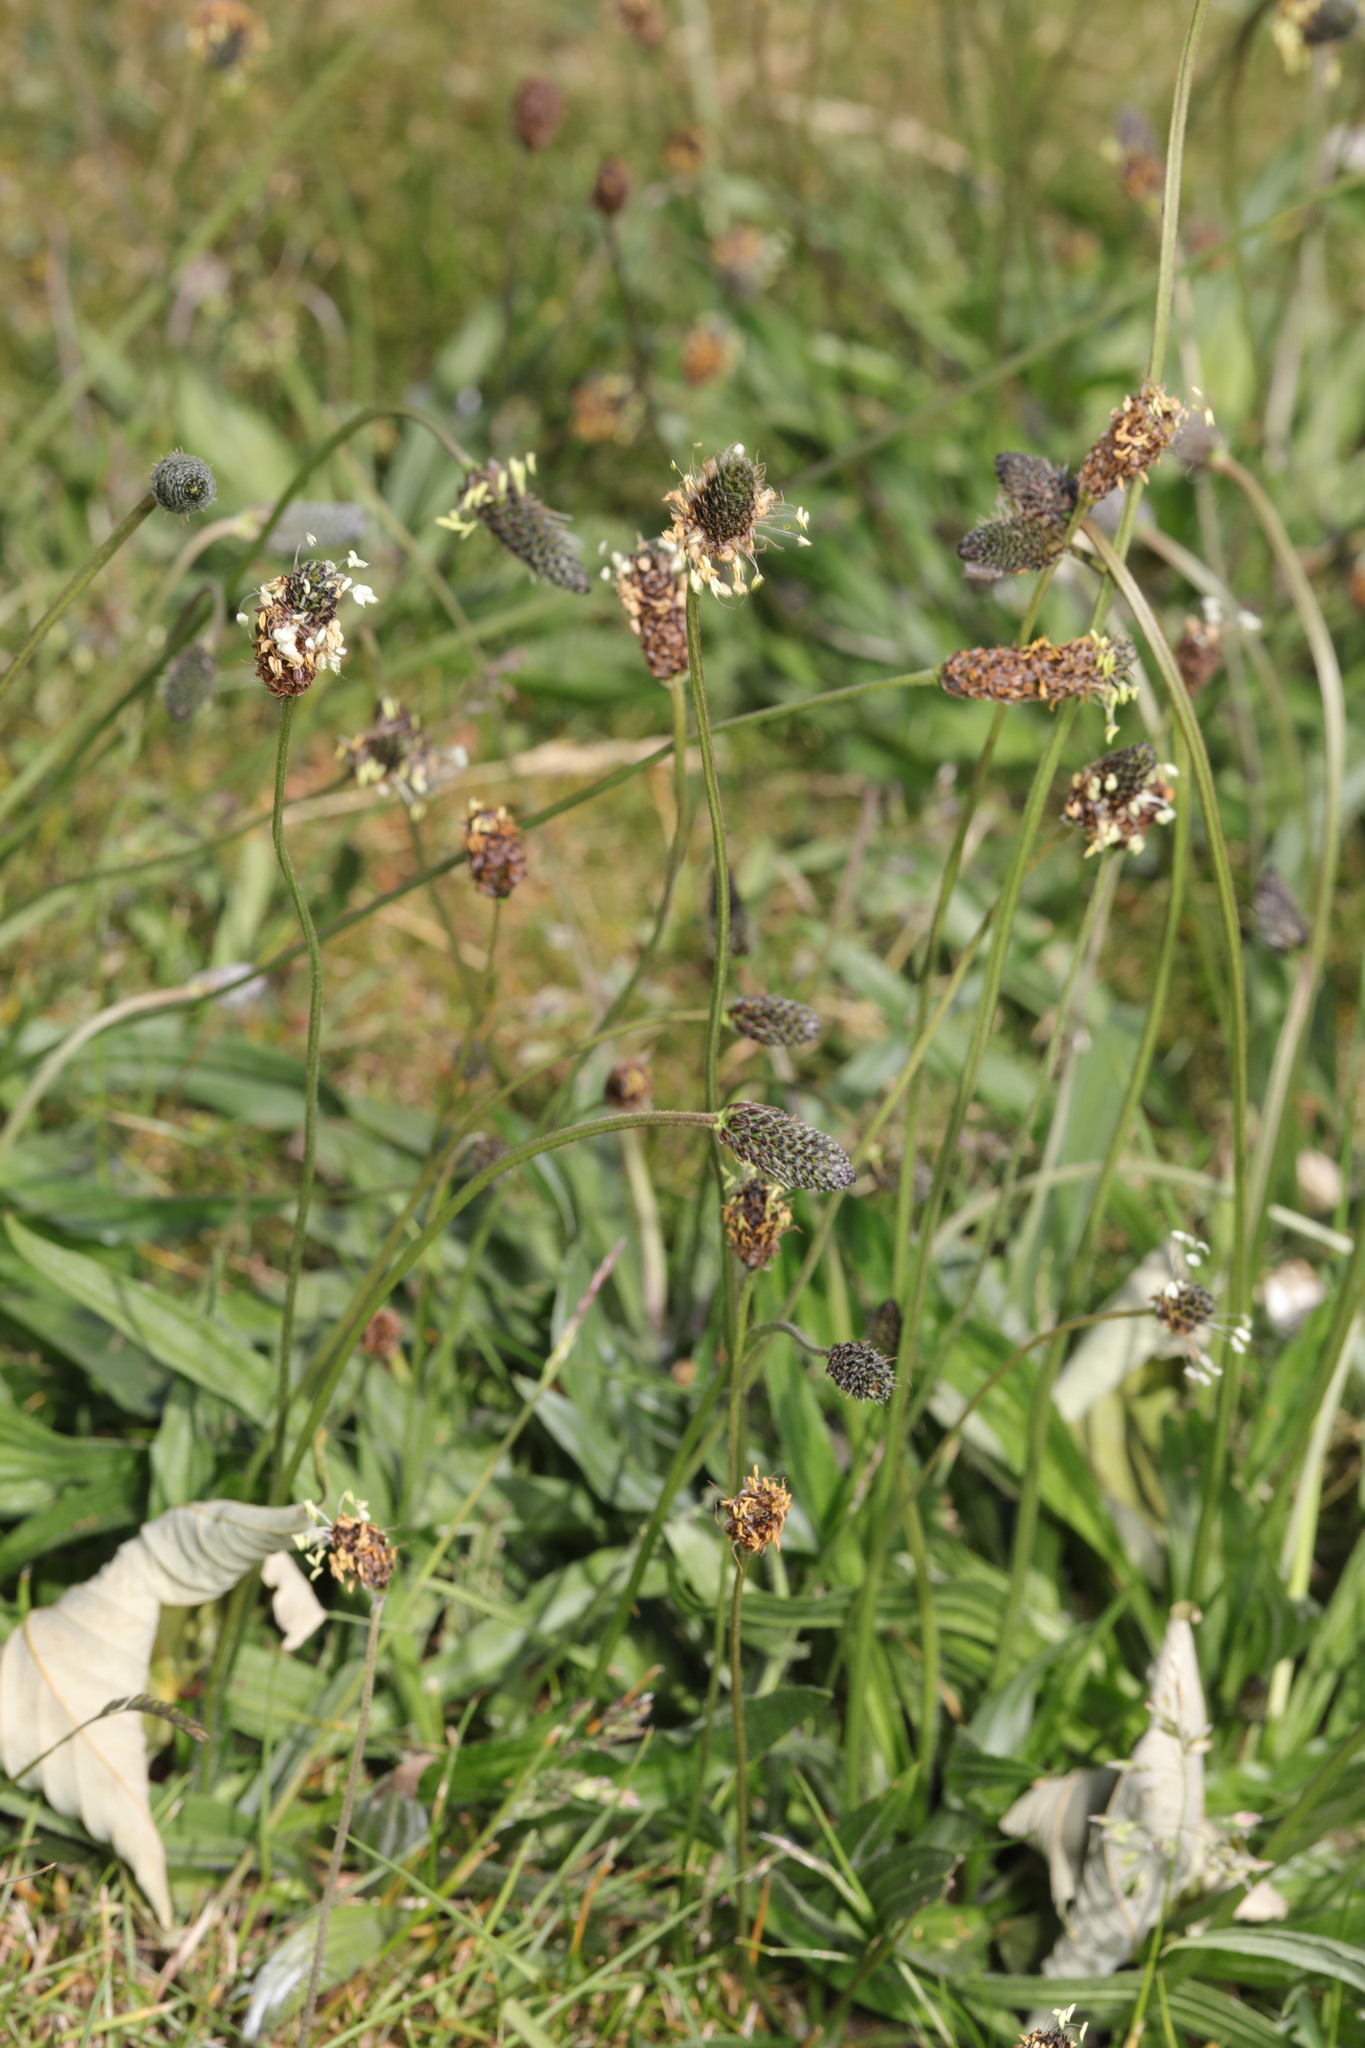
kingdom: Plantae
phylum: Tracheophyta
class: Magnoliopsida
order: Lamiales
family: Plantaginaceae
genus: Plantago
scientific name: Plantago lanceolata
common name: Ribwort plantain
